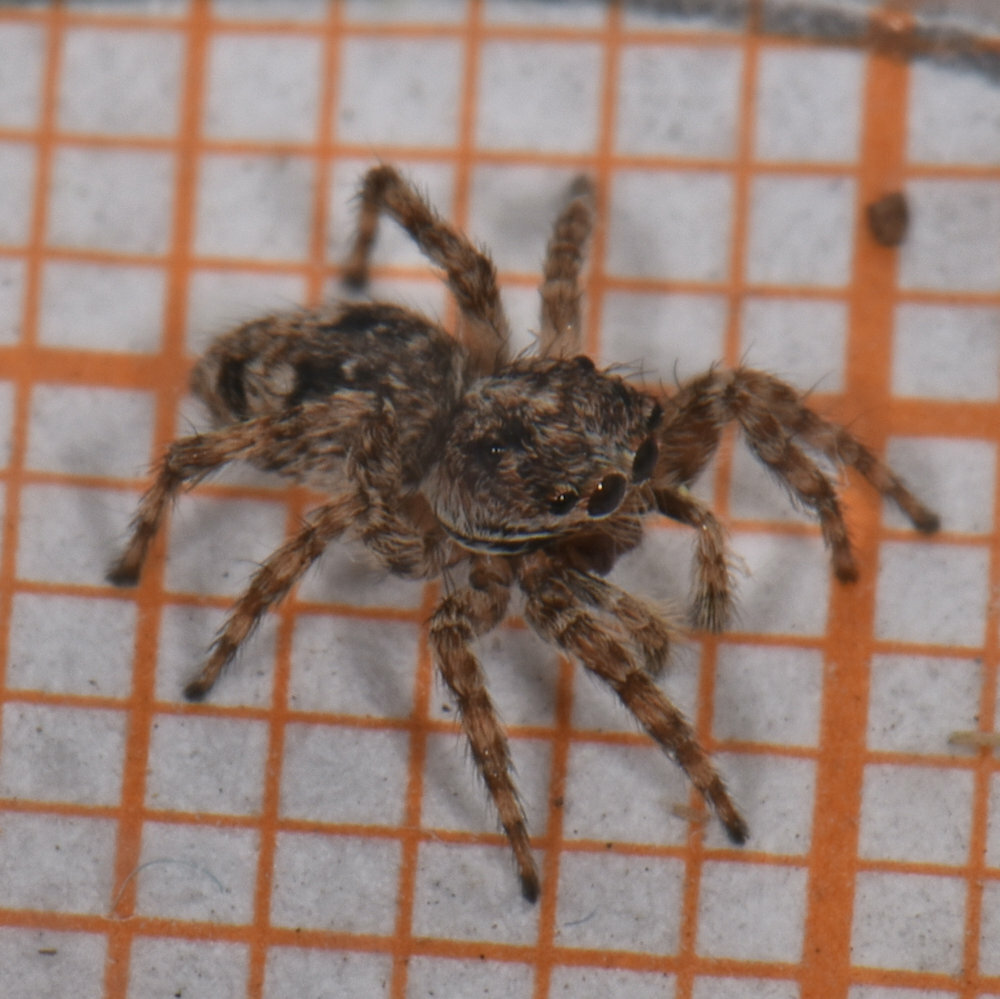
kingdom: Animalia
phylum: Arthropoda
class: Arachnida
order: Araneae
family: Salticidae
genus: Attulus
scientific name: Attulus fasciger
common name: Asiatic wall jumping spider
